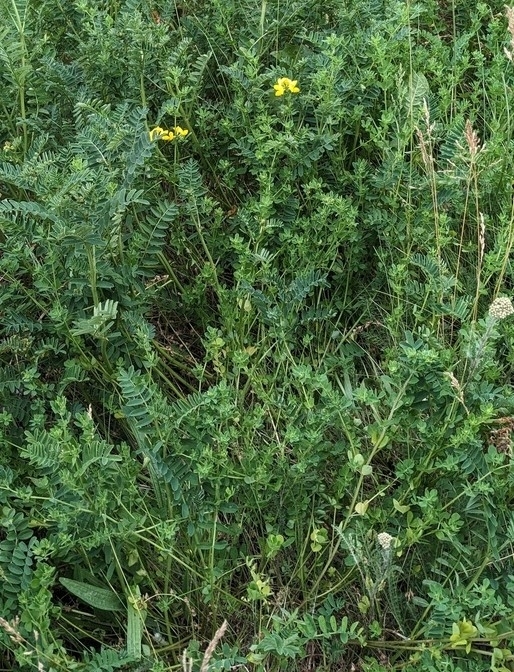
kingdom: Plantae
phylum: Tracheophyta
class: Magnoliopsida
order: Fabales
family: Fabaceae
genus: Lotus
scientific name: Lotus corniculatus
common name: Common bird's-foot-trefoil
